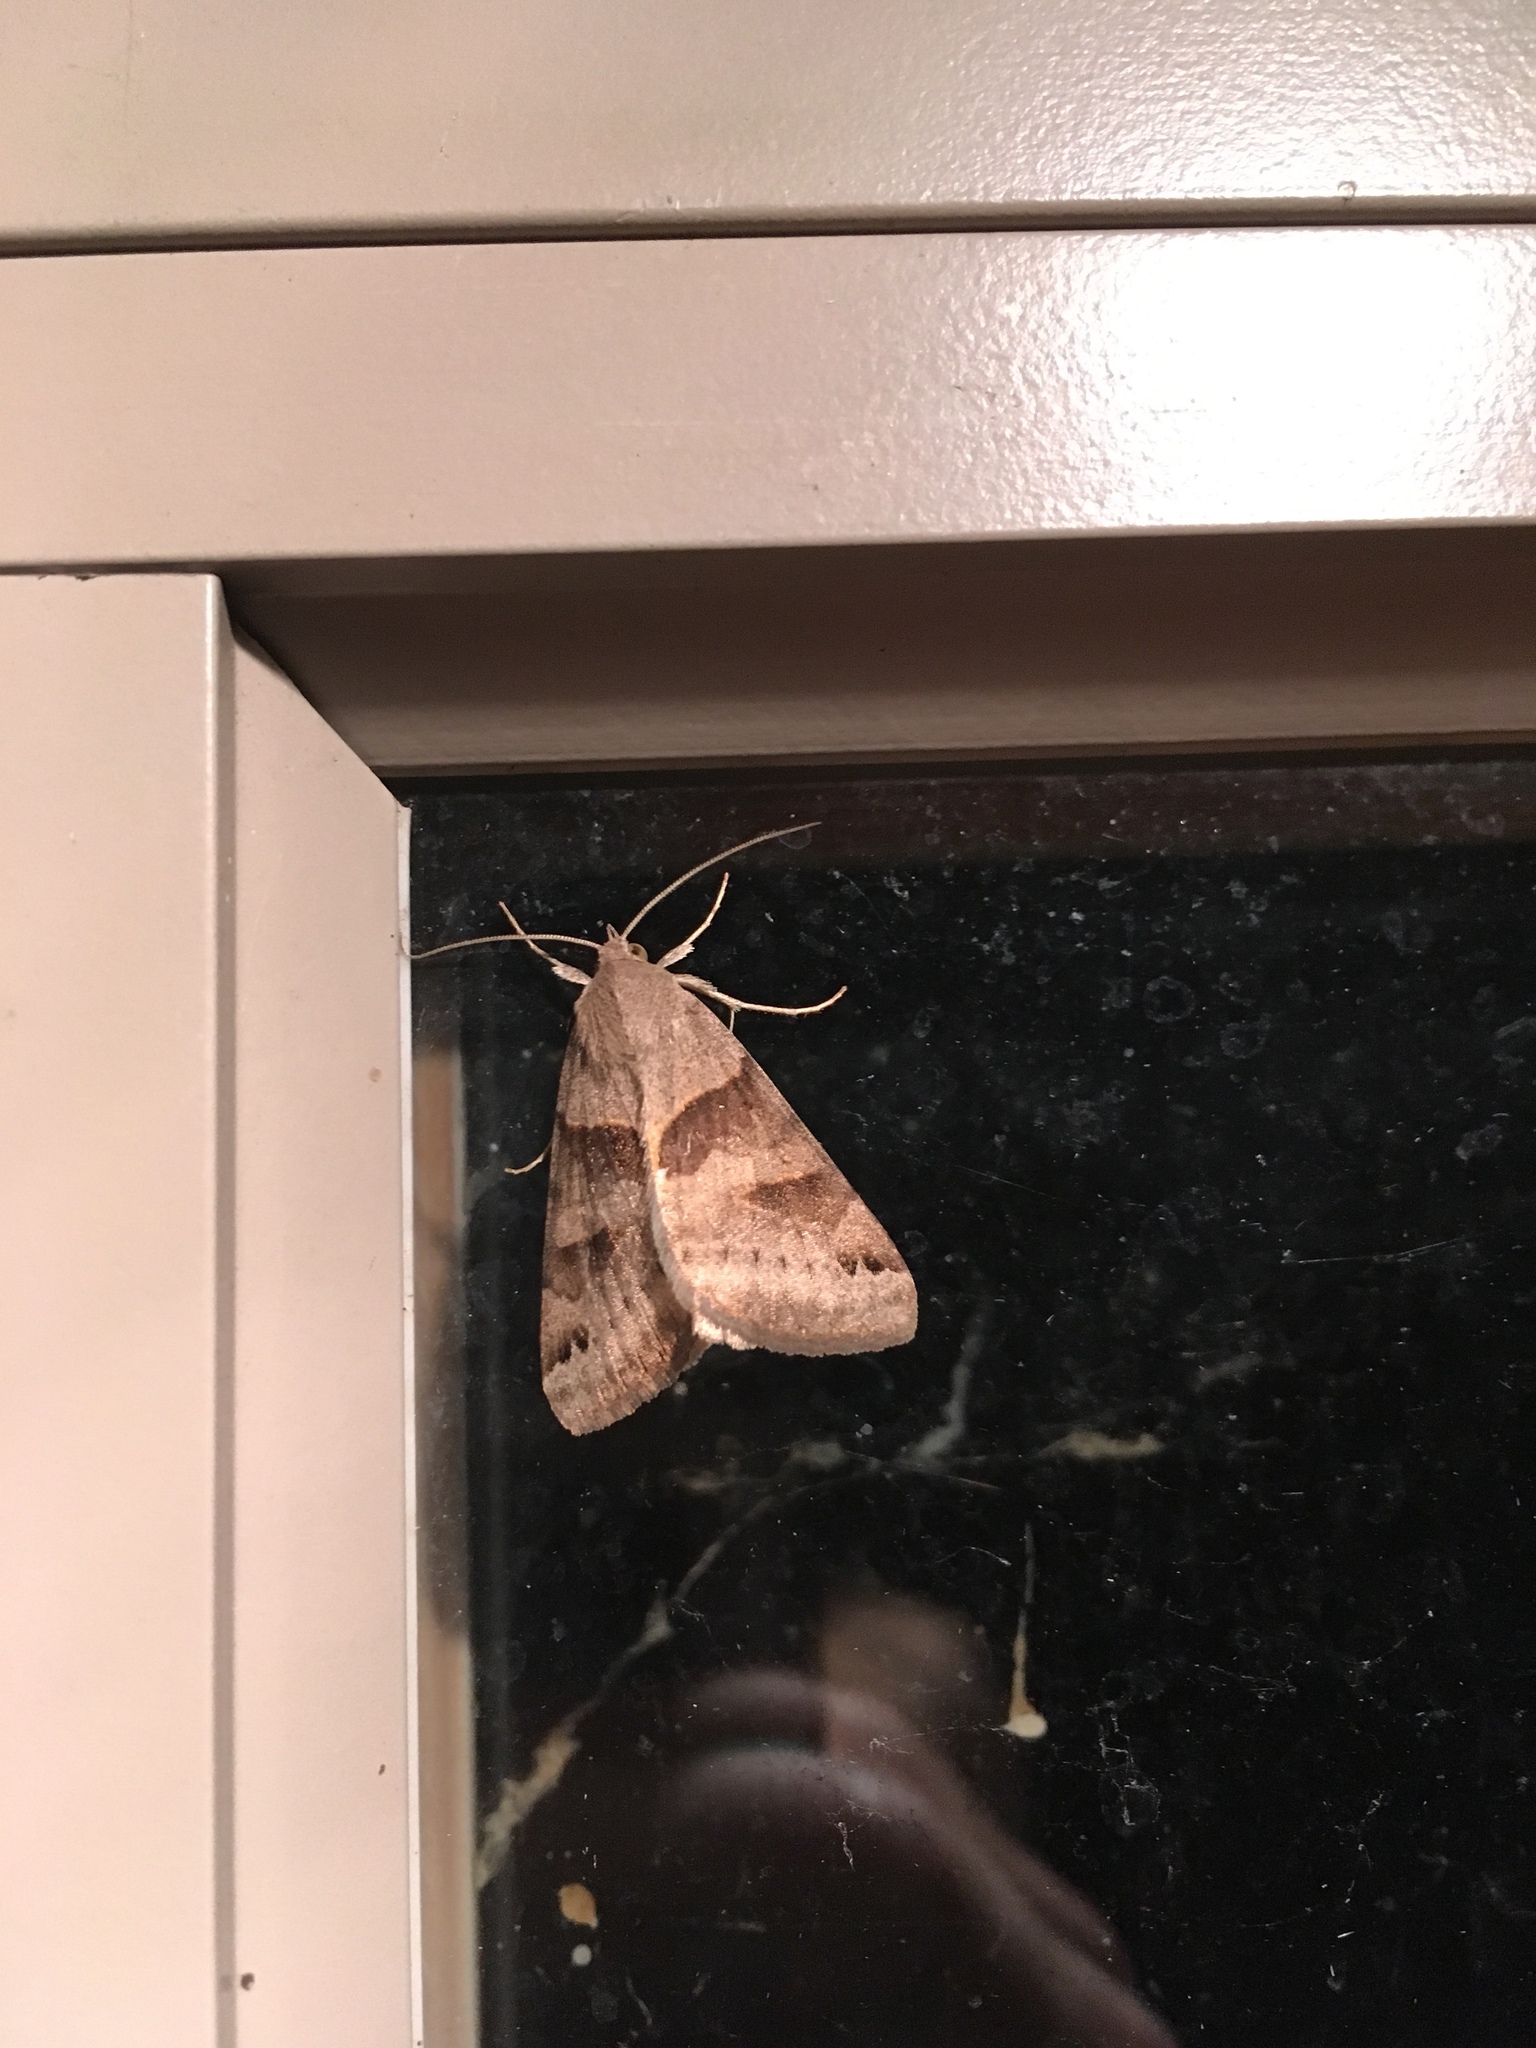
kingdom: Animalia
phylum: Arthropoda
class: Insecta
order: Lepidoptera
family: Erebidae
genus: Caenurgina
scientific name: Caenurgina crassiuscula
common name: Double-barred
